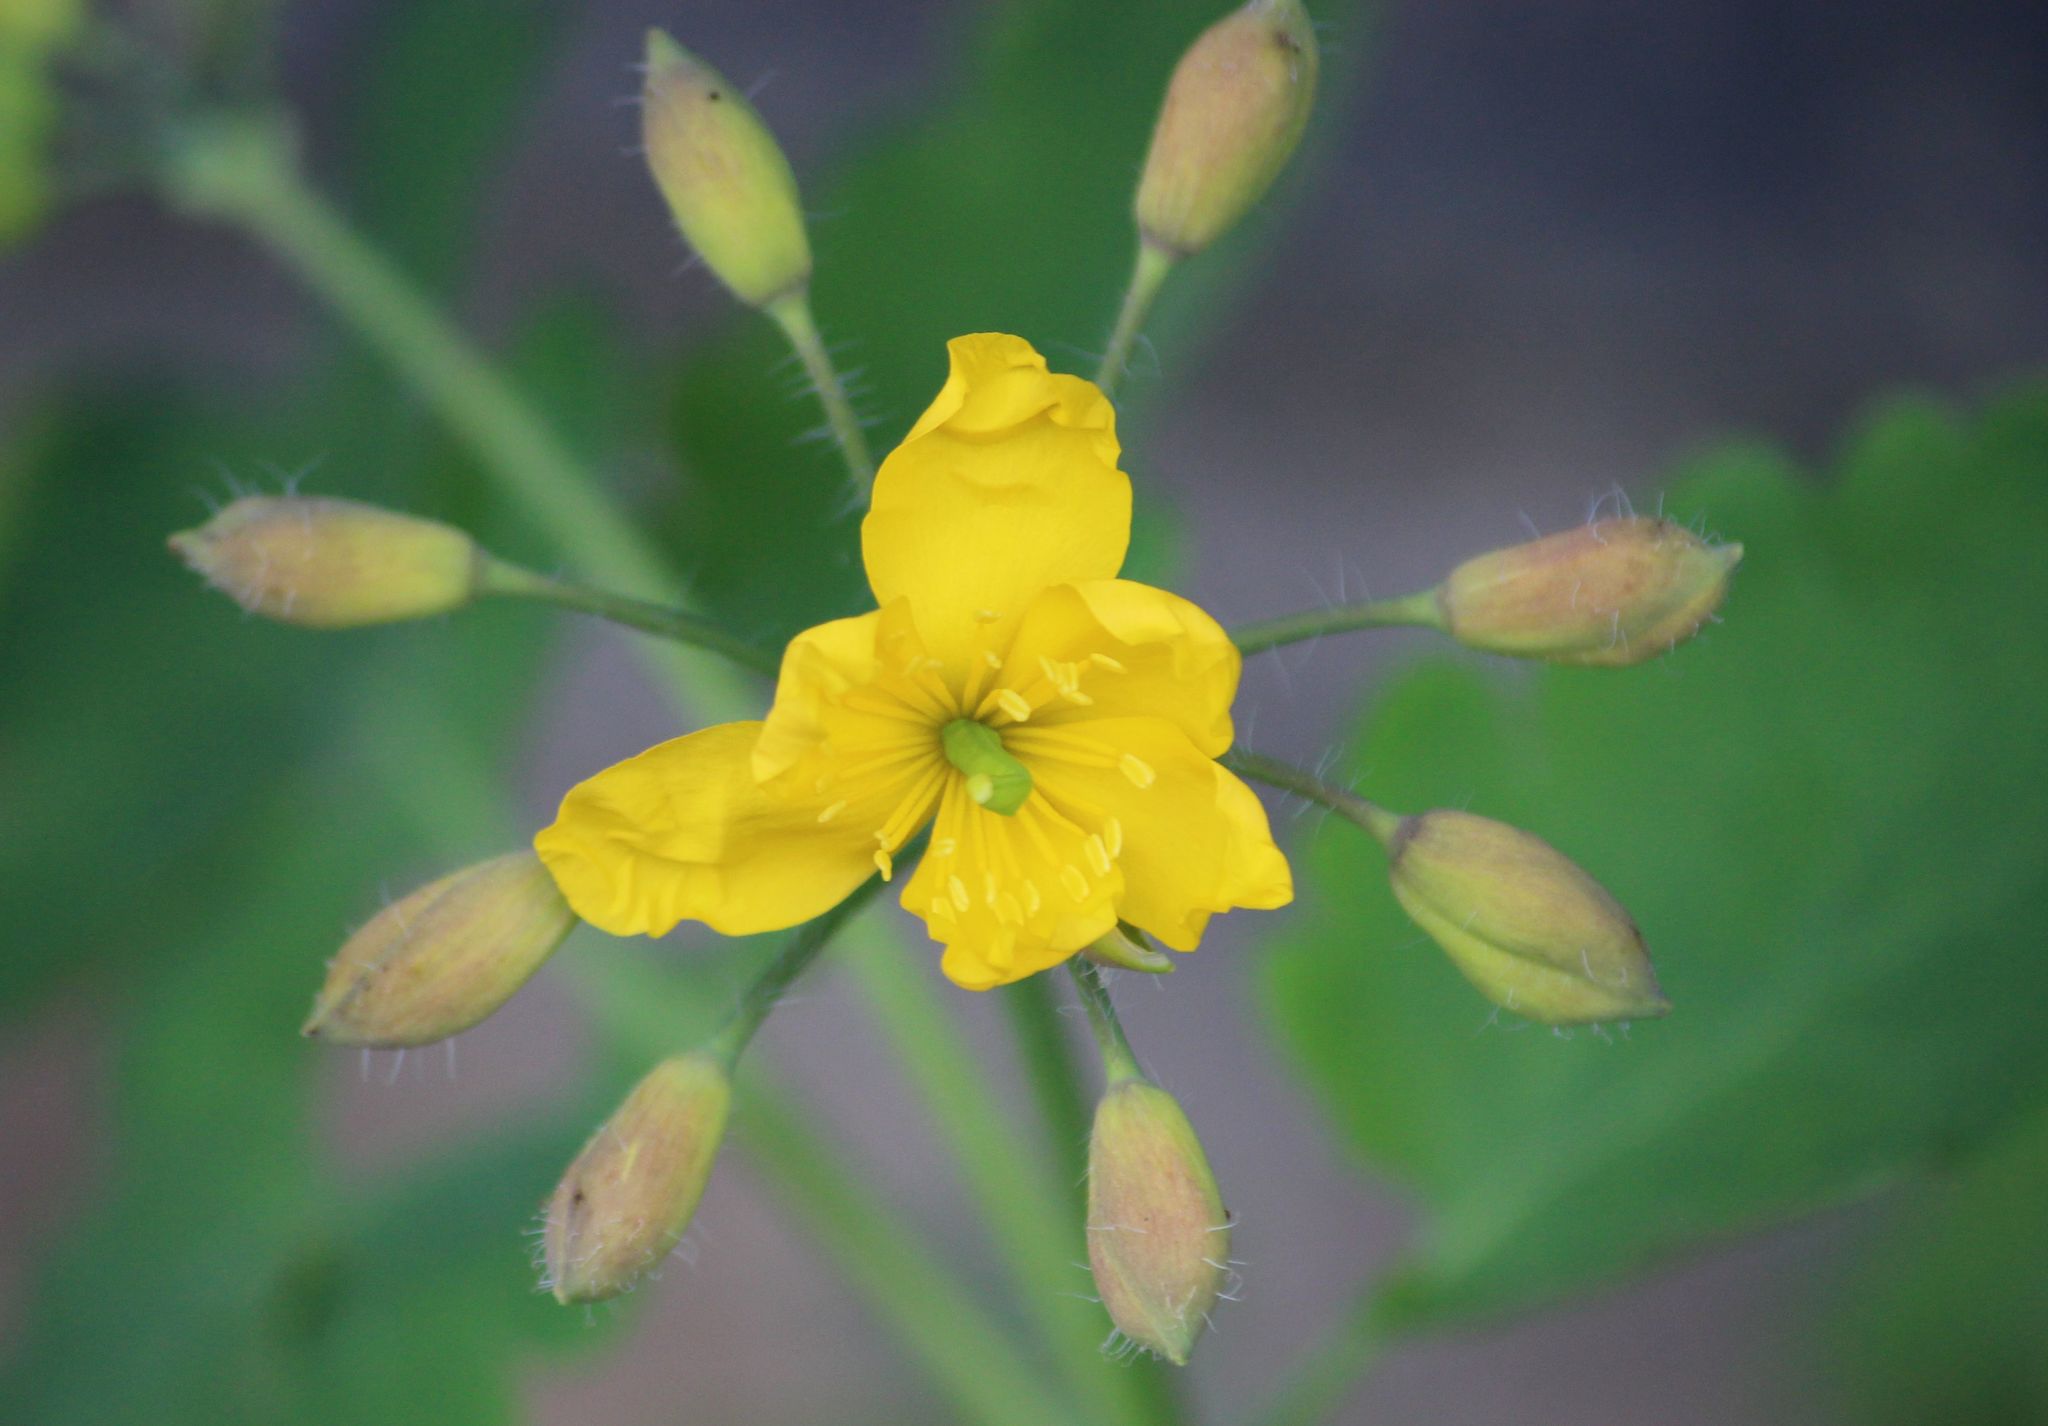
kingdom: Plantae
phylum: Tracheophyta
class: Magnoliopsida
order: Ranunculales
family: Papaveraceae
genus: Chelidonium
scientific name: Chelidonium majus
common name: Greater celandine
